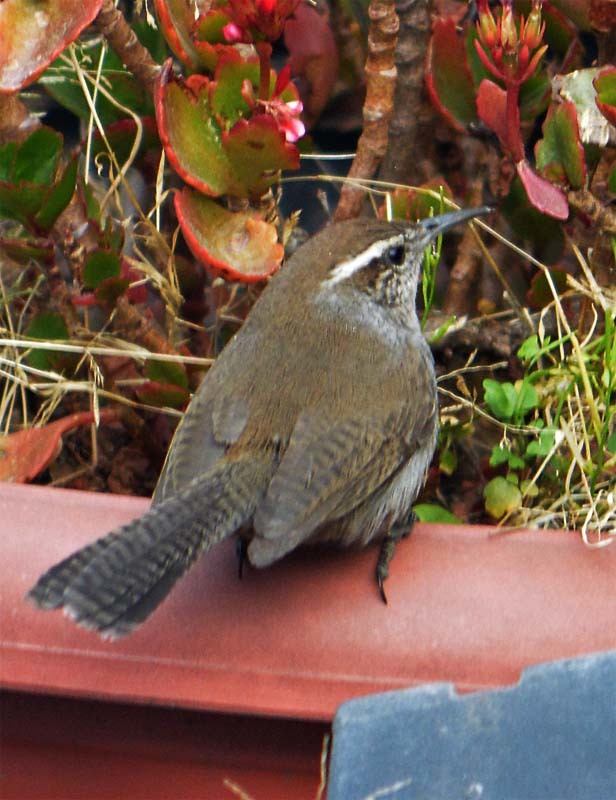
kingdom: Animalia
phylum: Chordata
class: Aves
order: Passeriformes
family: Troglodytidae
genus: Thryomanes
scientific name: Thryomanes bewickii
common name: Bewick's wren
